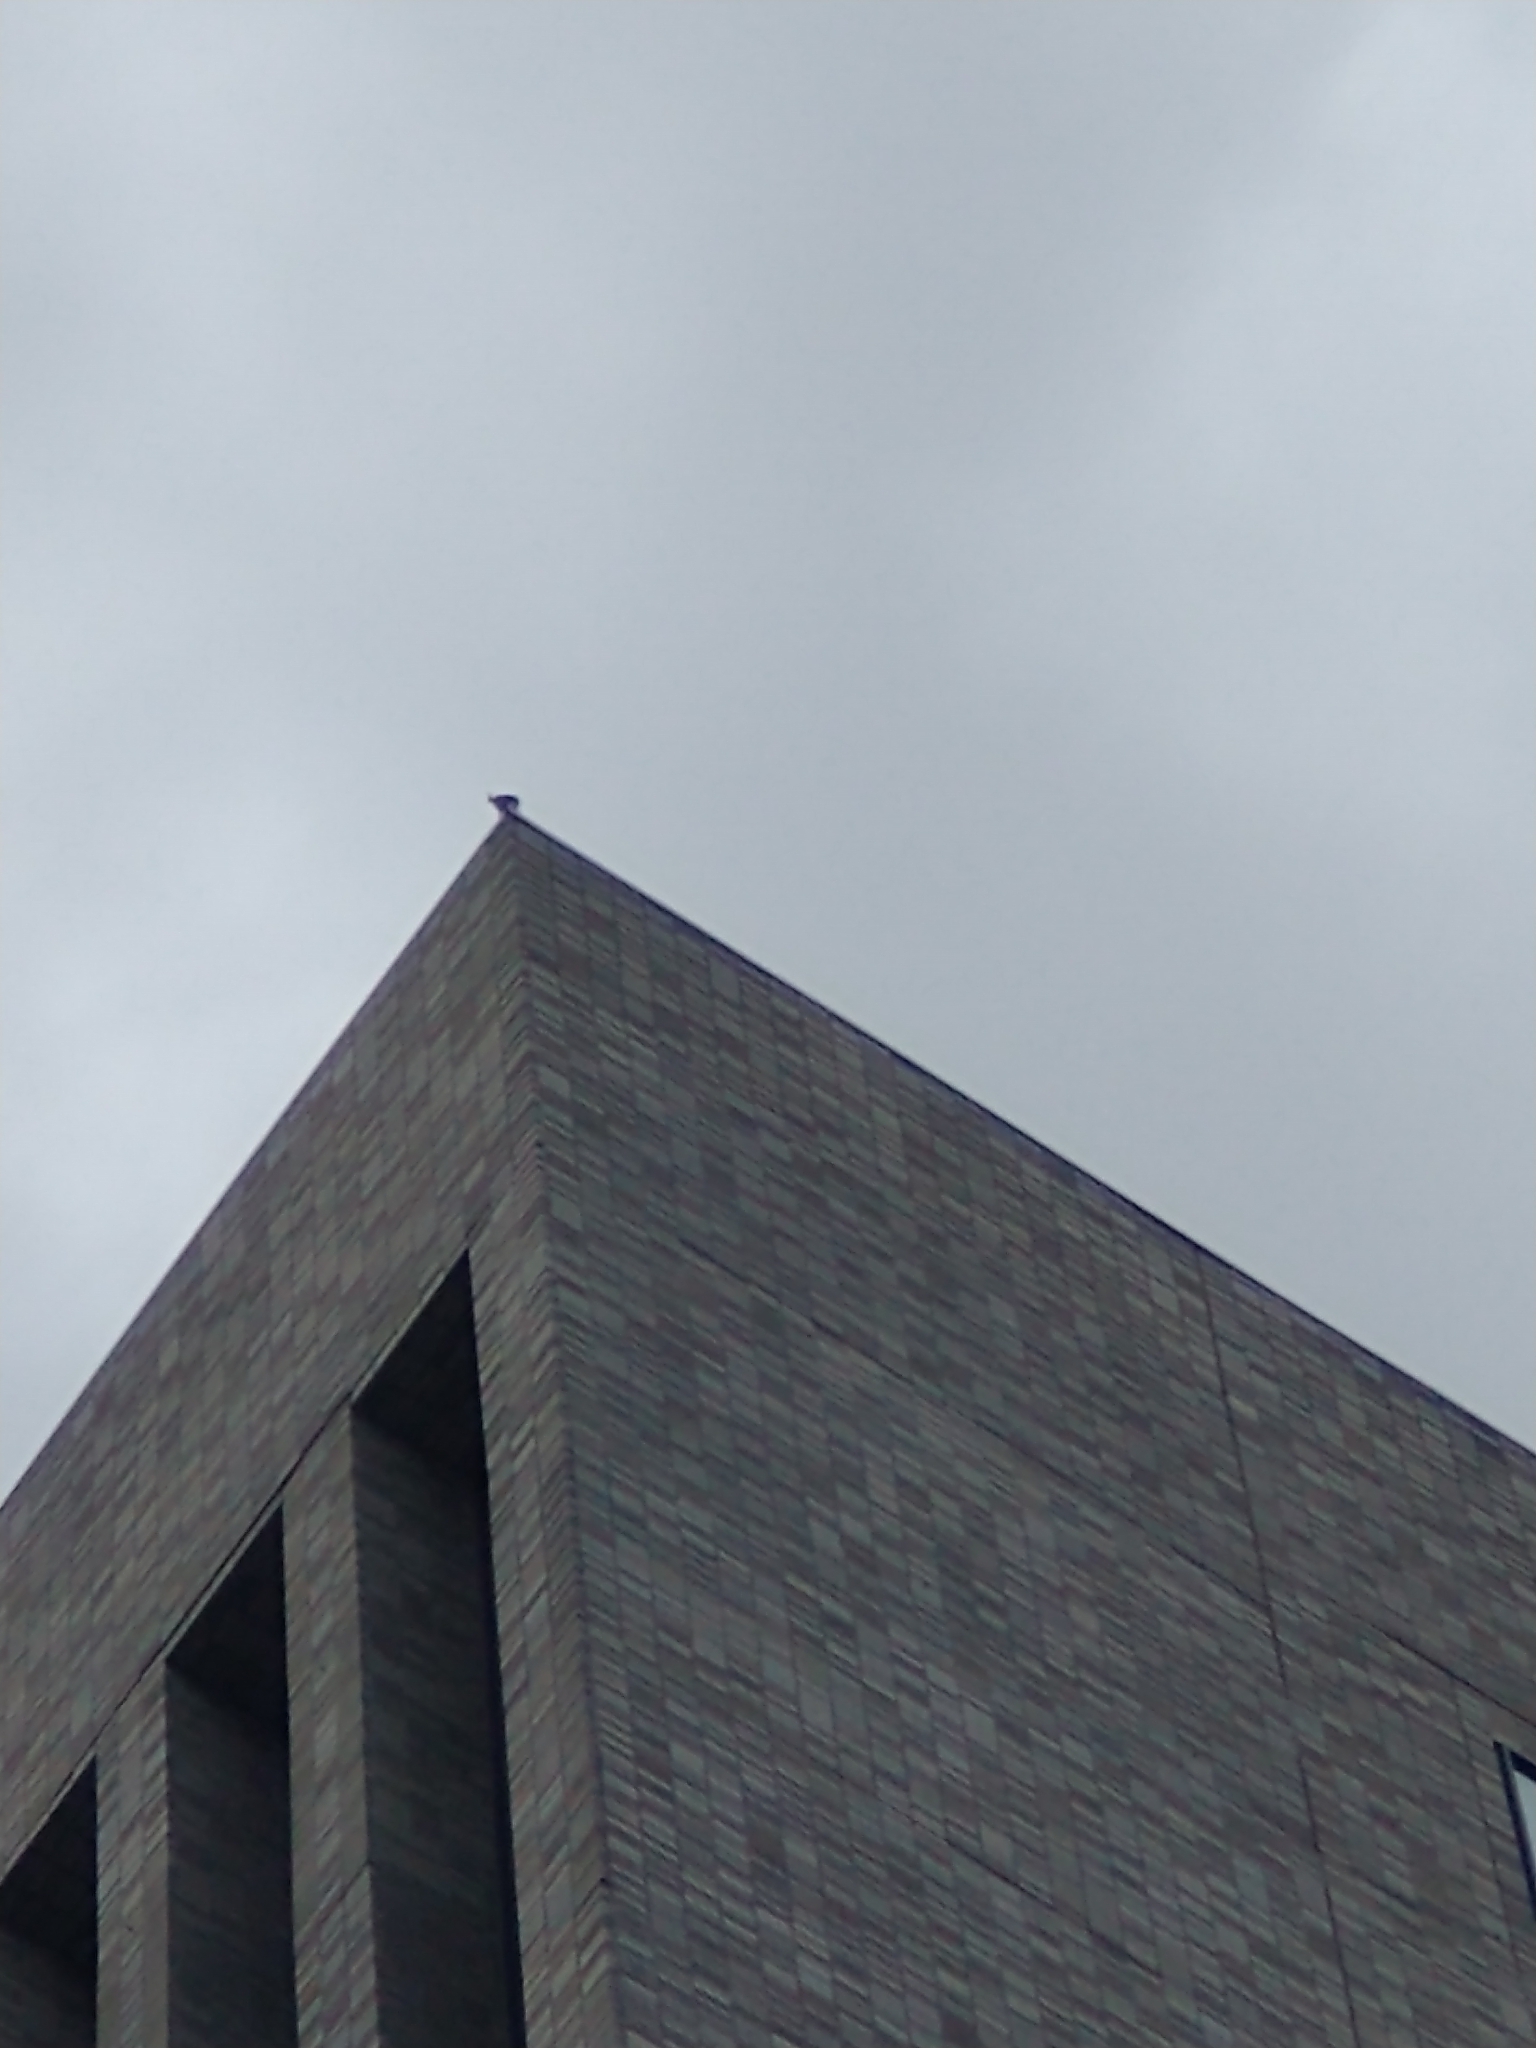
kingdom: Animalia
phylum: Chordata
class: Aves
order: Falconiformes
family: Falconidae
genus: Falco
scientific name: Falco peregrinus
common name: Peregrine falcon
